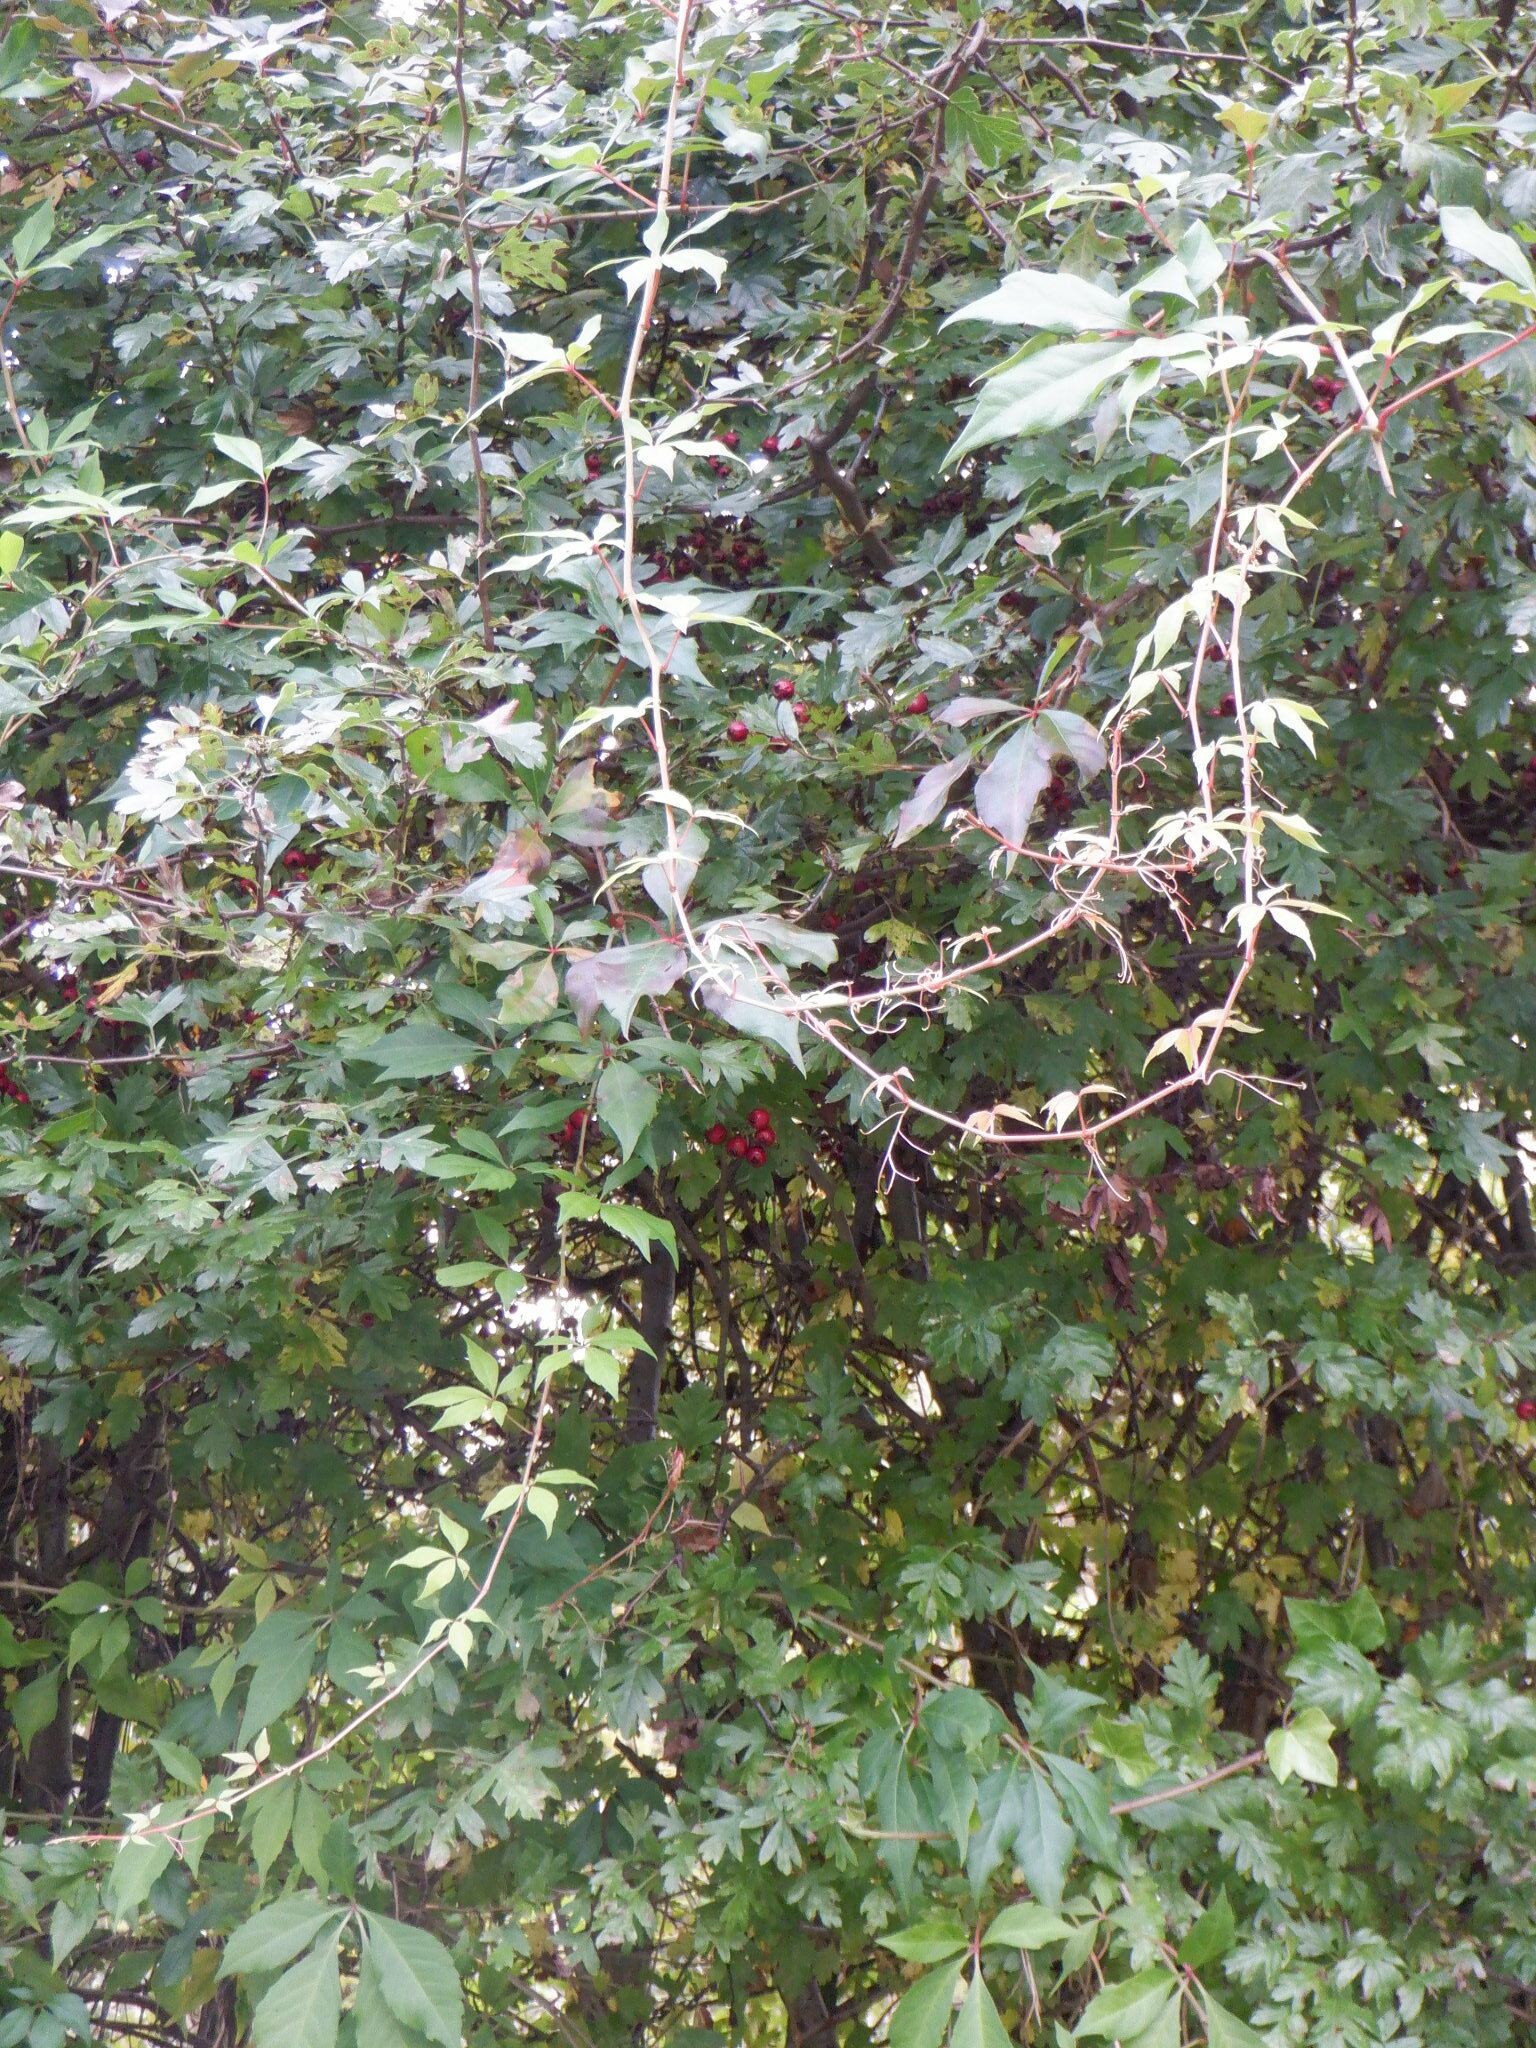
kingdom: Plantae
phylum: Tracheophyta
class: Magnoliopsida
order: Vitales
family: Vitaceae
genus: Parthenocissus
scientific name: Parthenocissus quinquefolia
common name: Virginia-creeper
